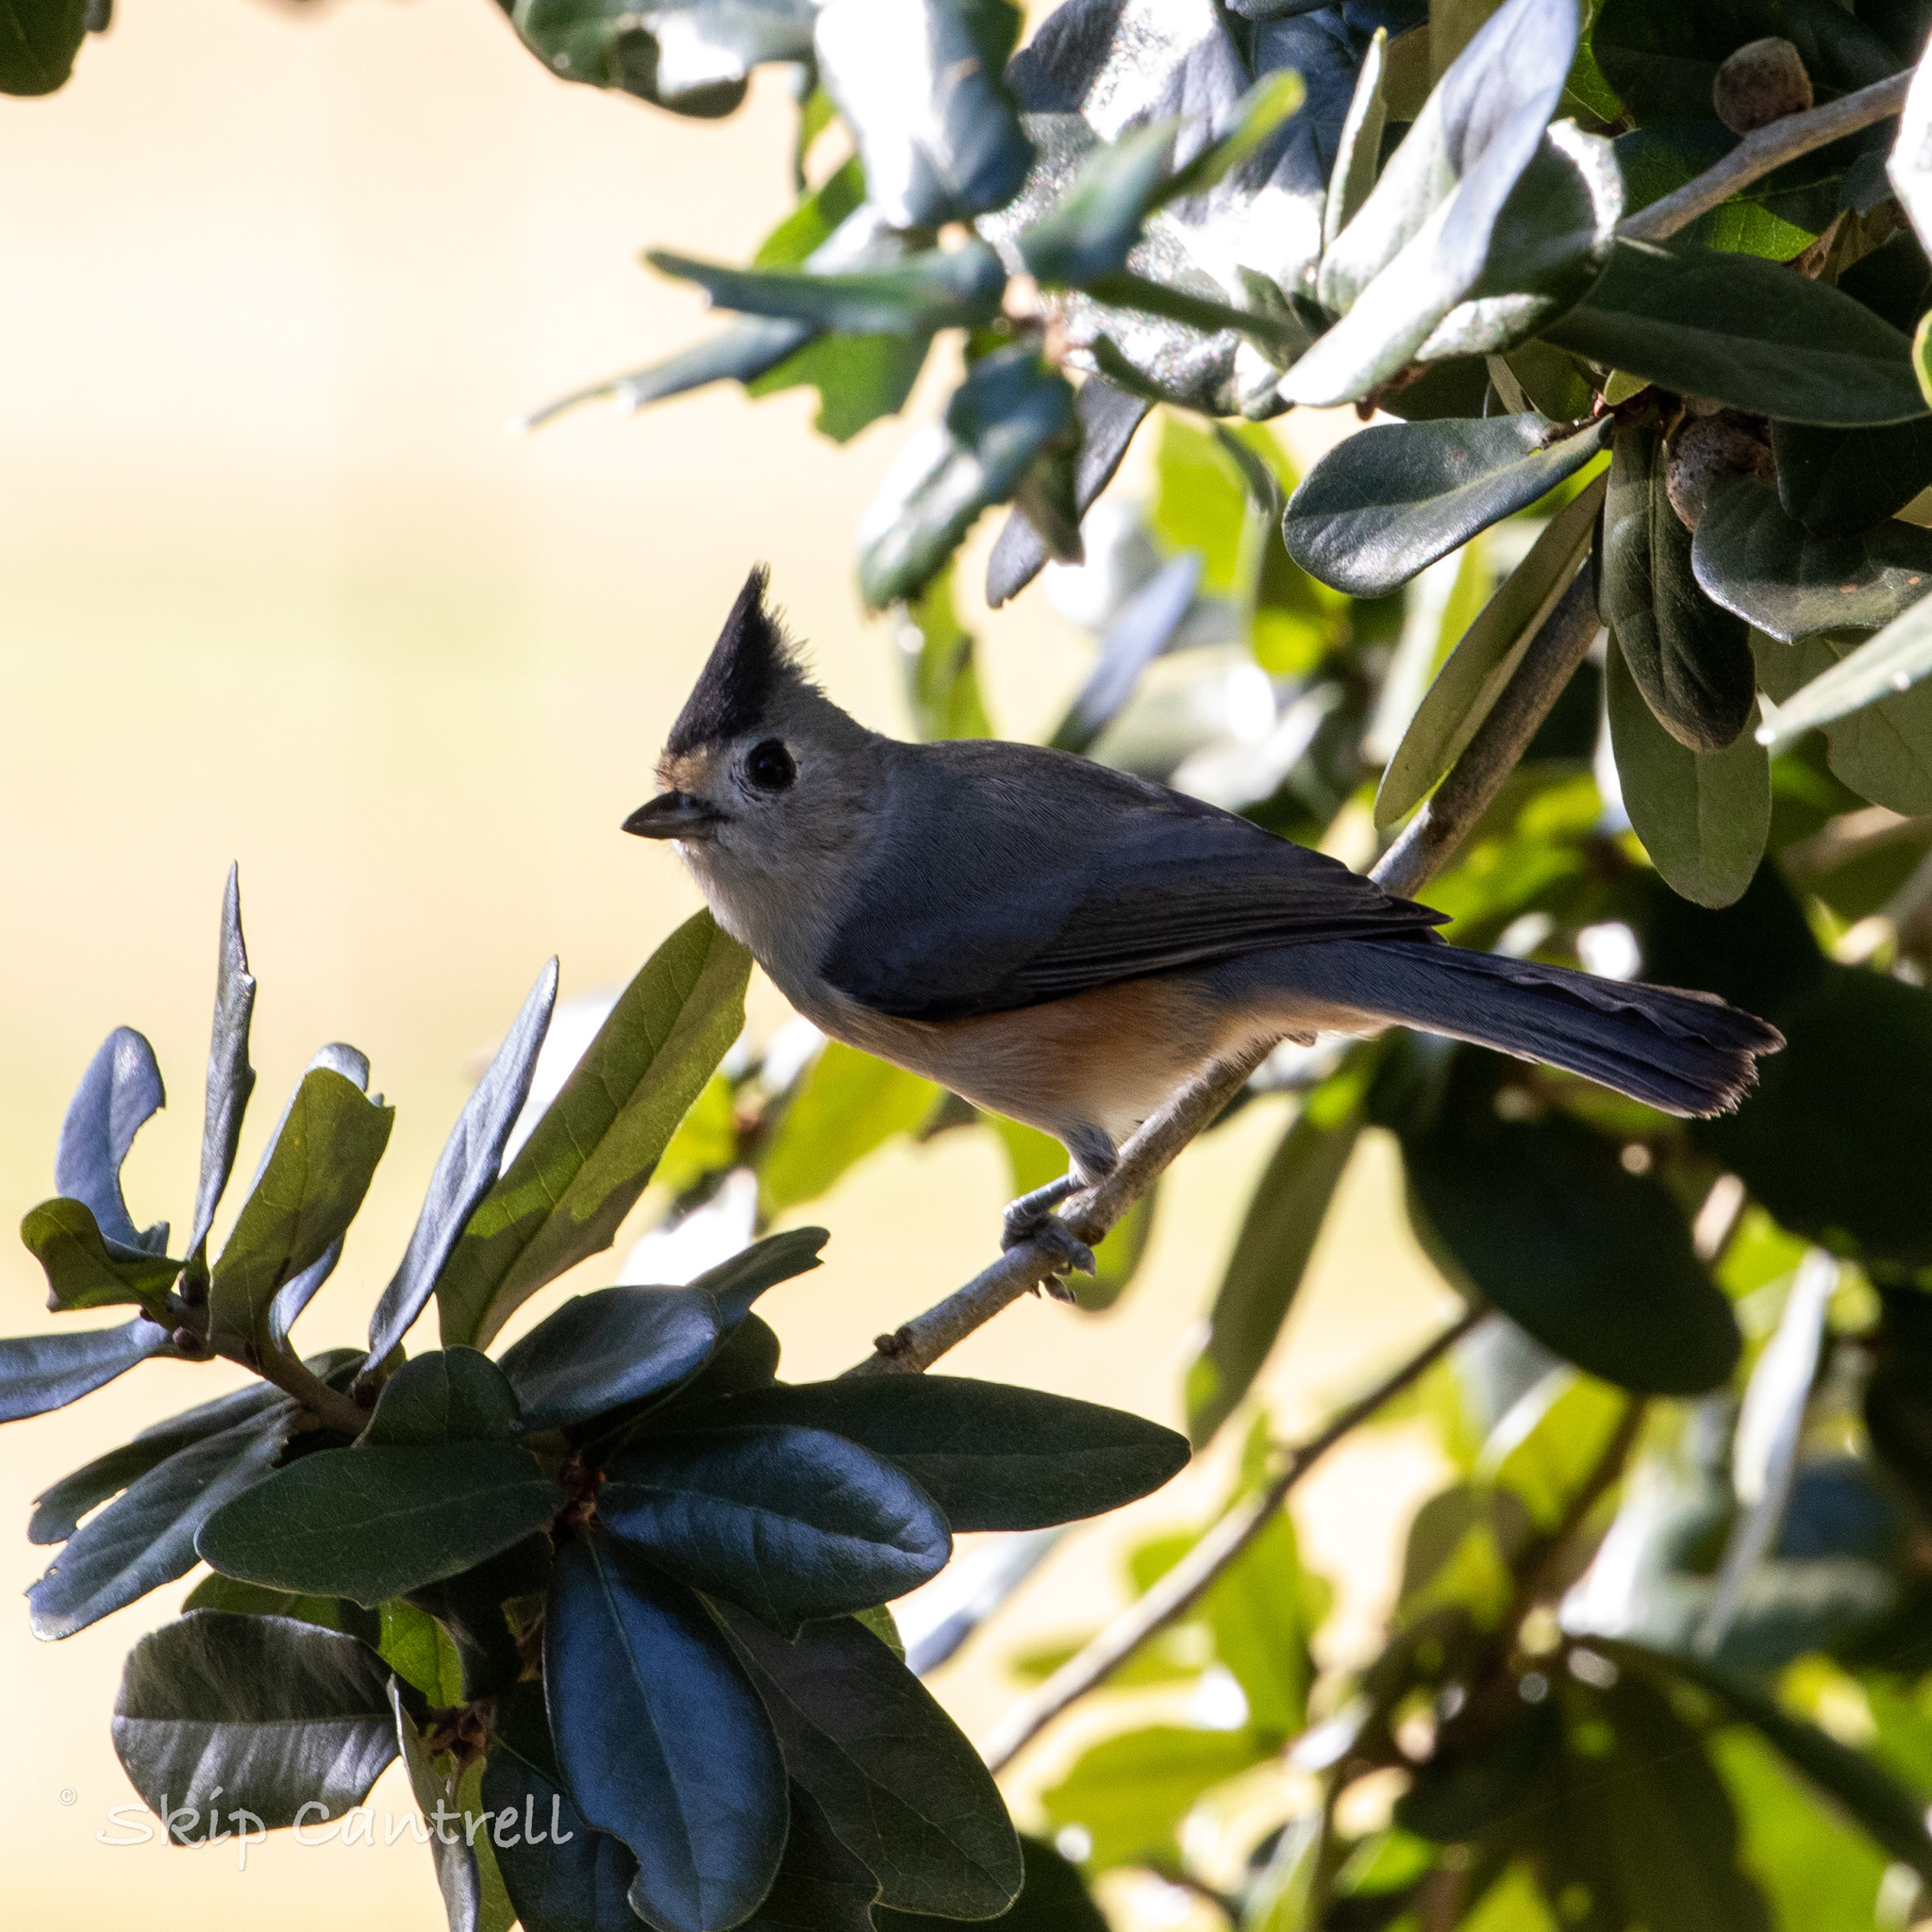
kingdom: Animalia
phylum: Chordata
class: Aves
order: Passeriformes
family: Paridae
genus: Baeolophus
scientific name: Baeolophus atricristatus
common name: Black-crested titmouse
